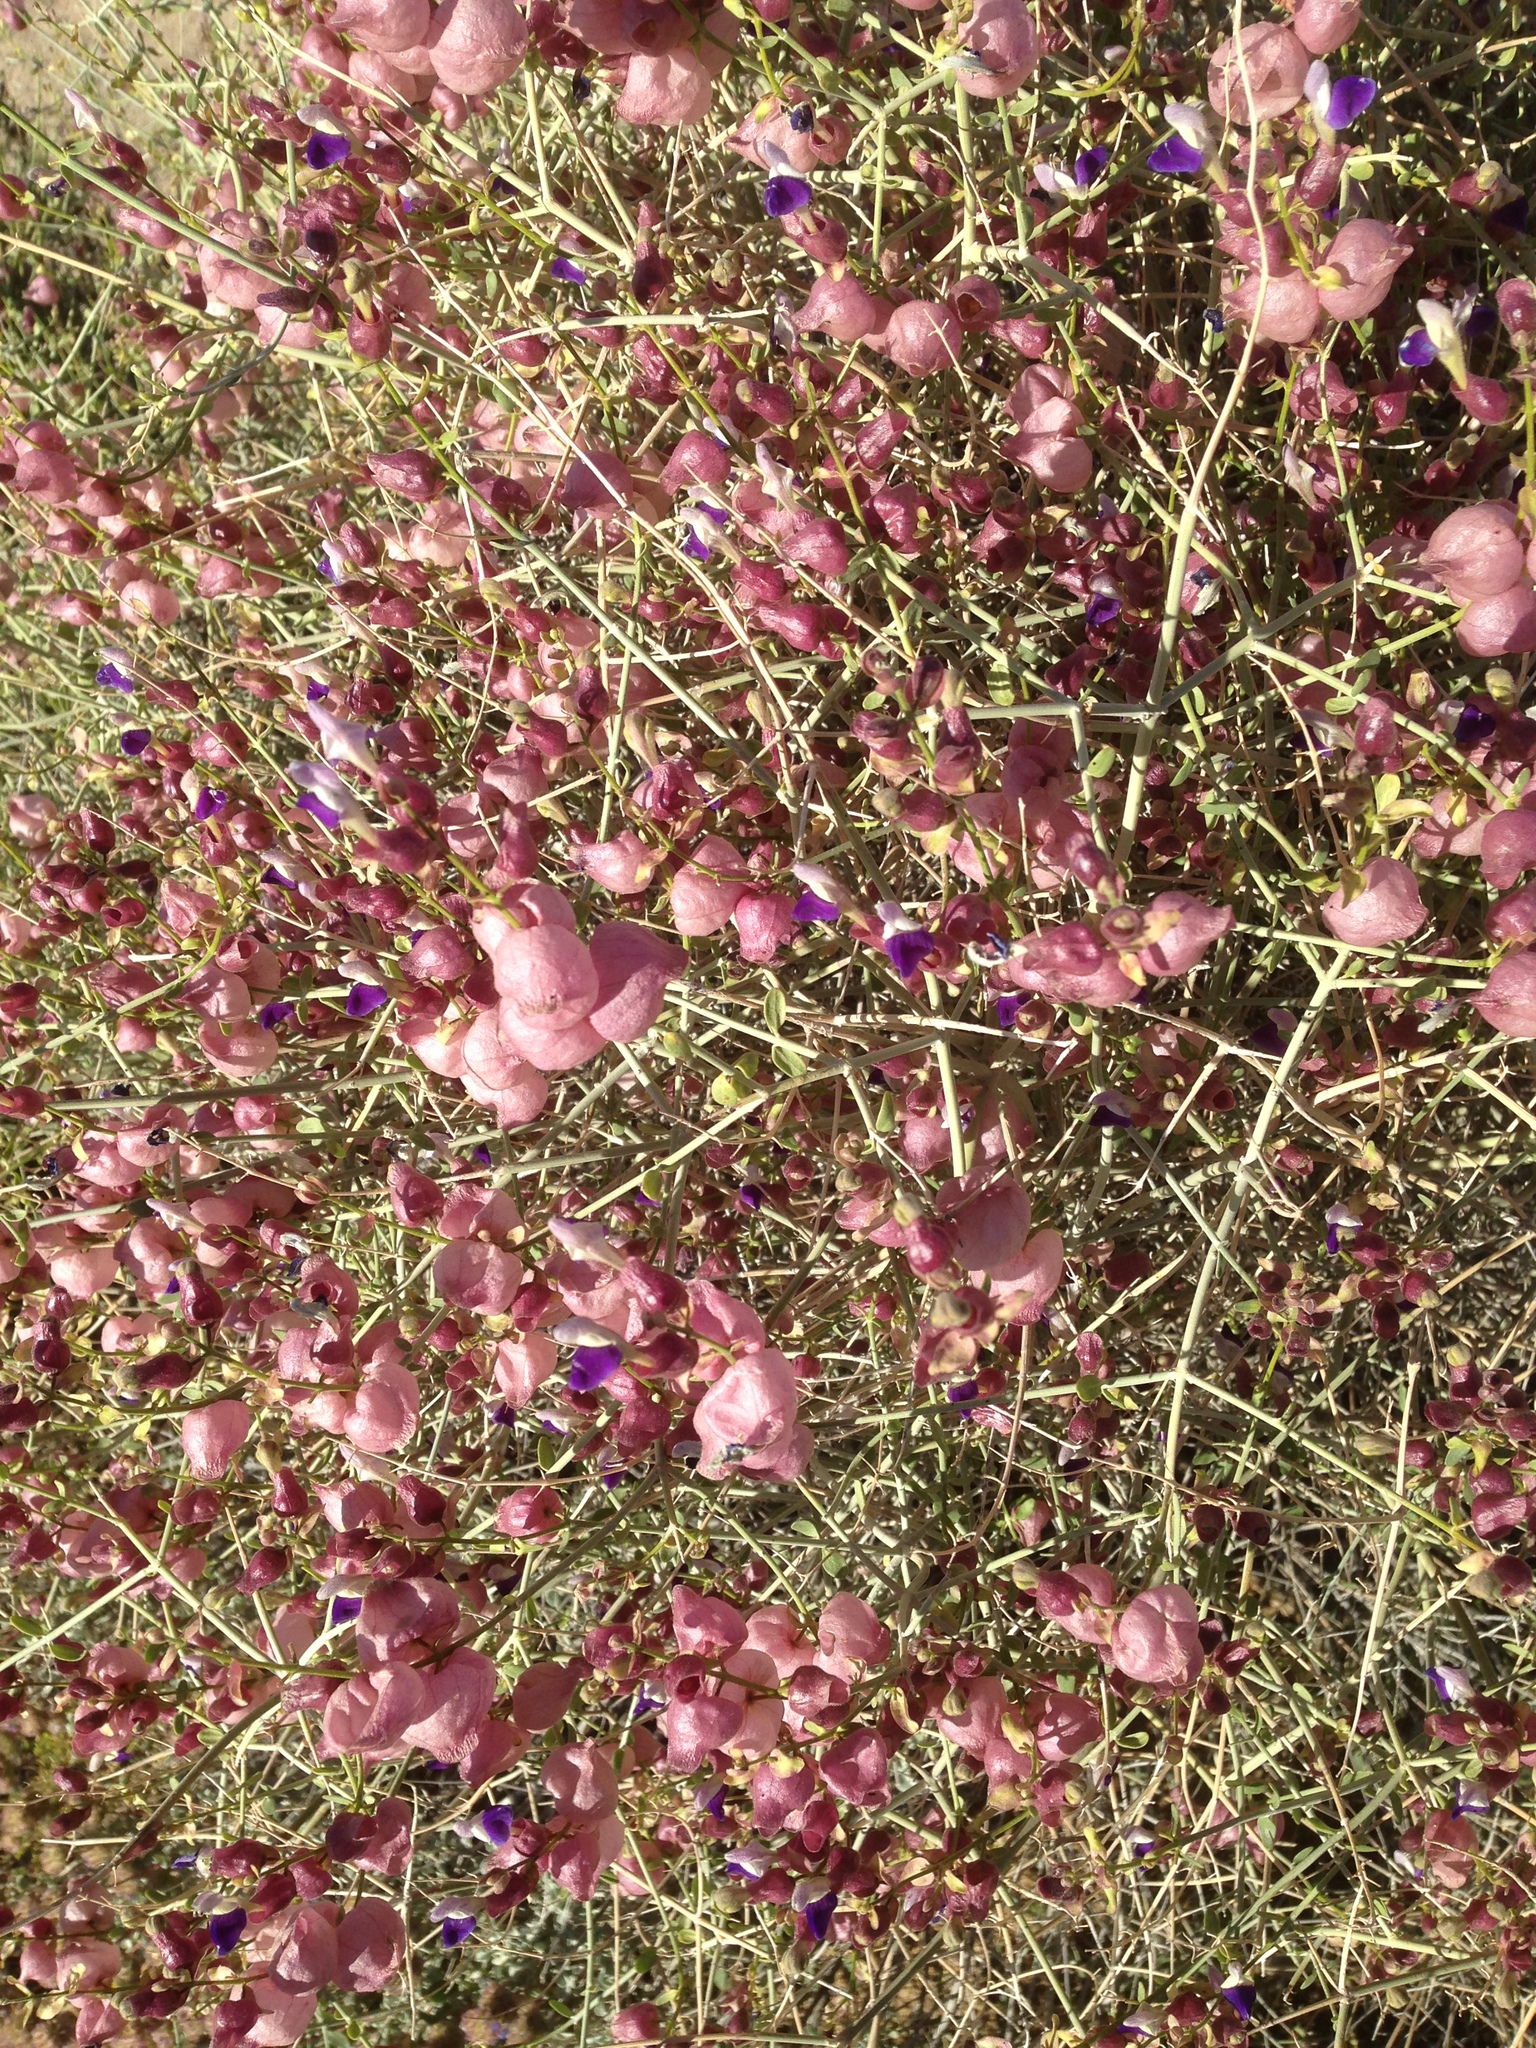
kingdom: Plantae
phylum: Tracheophyta
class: Magnoliopsida
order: Lamiales
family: Lamiaceae
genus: Scutellaria
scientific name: Scutellaria mexicana
